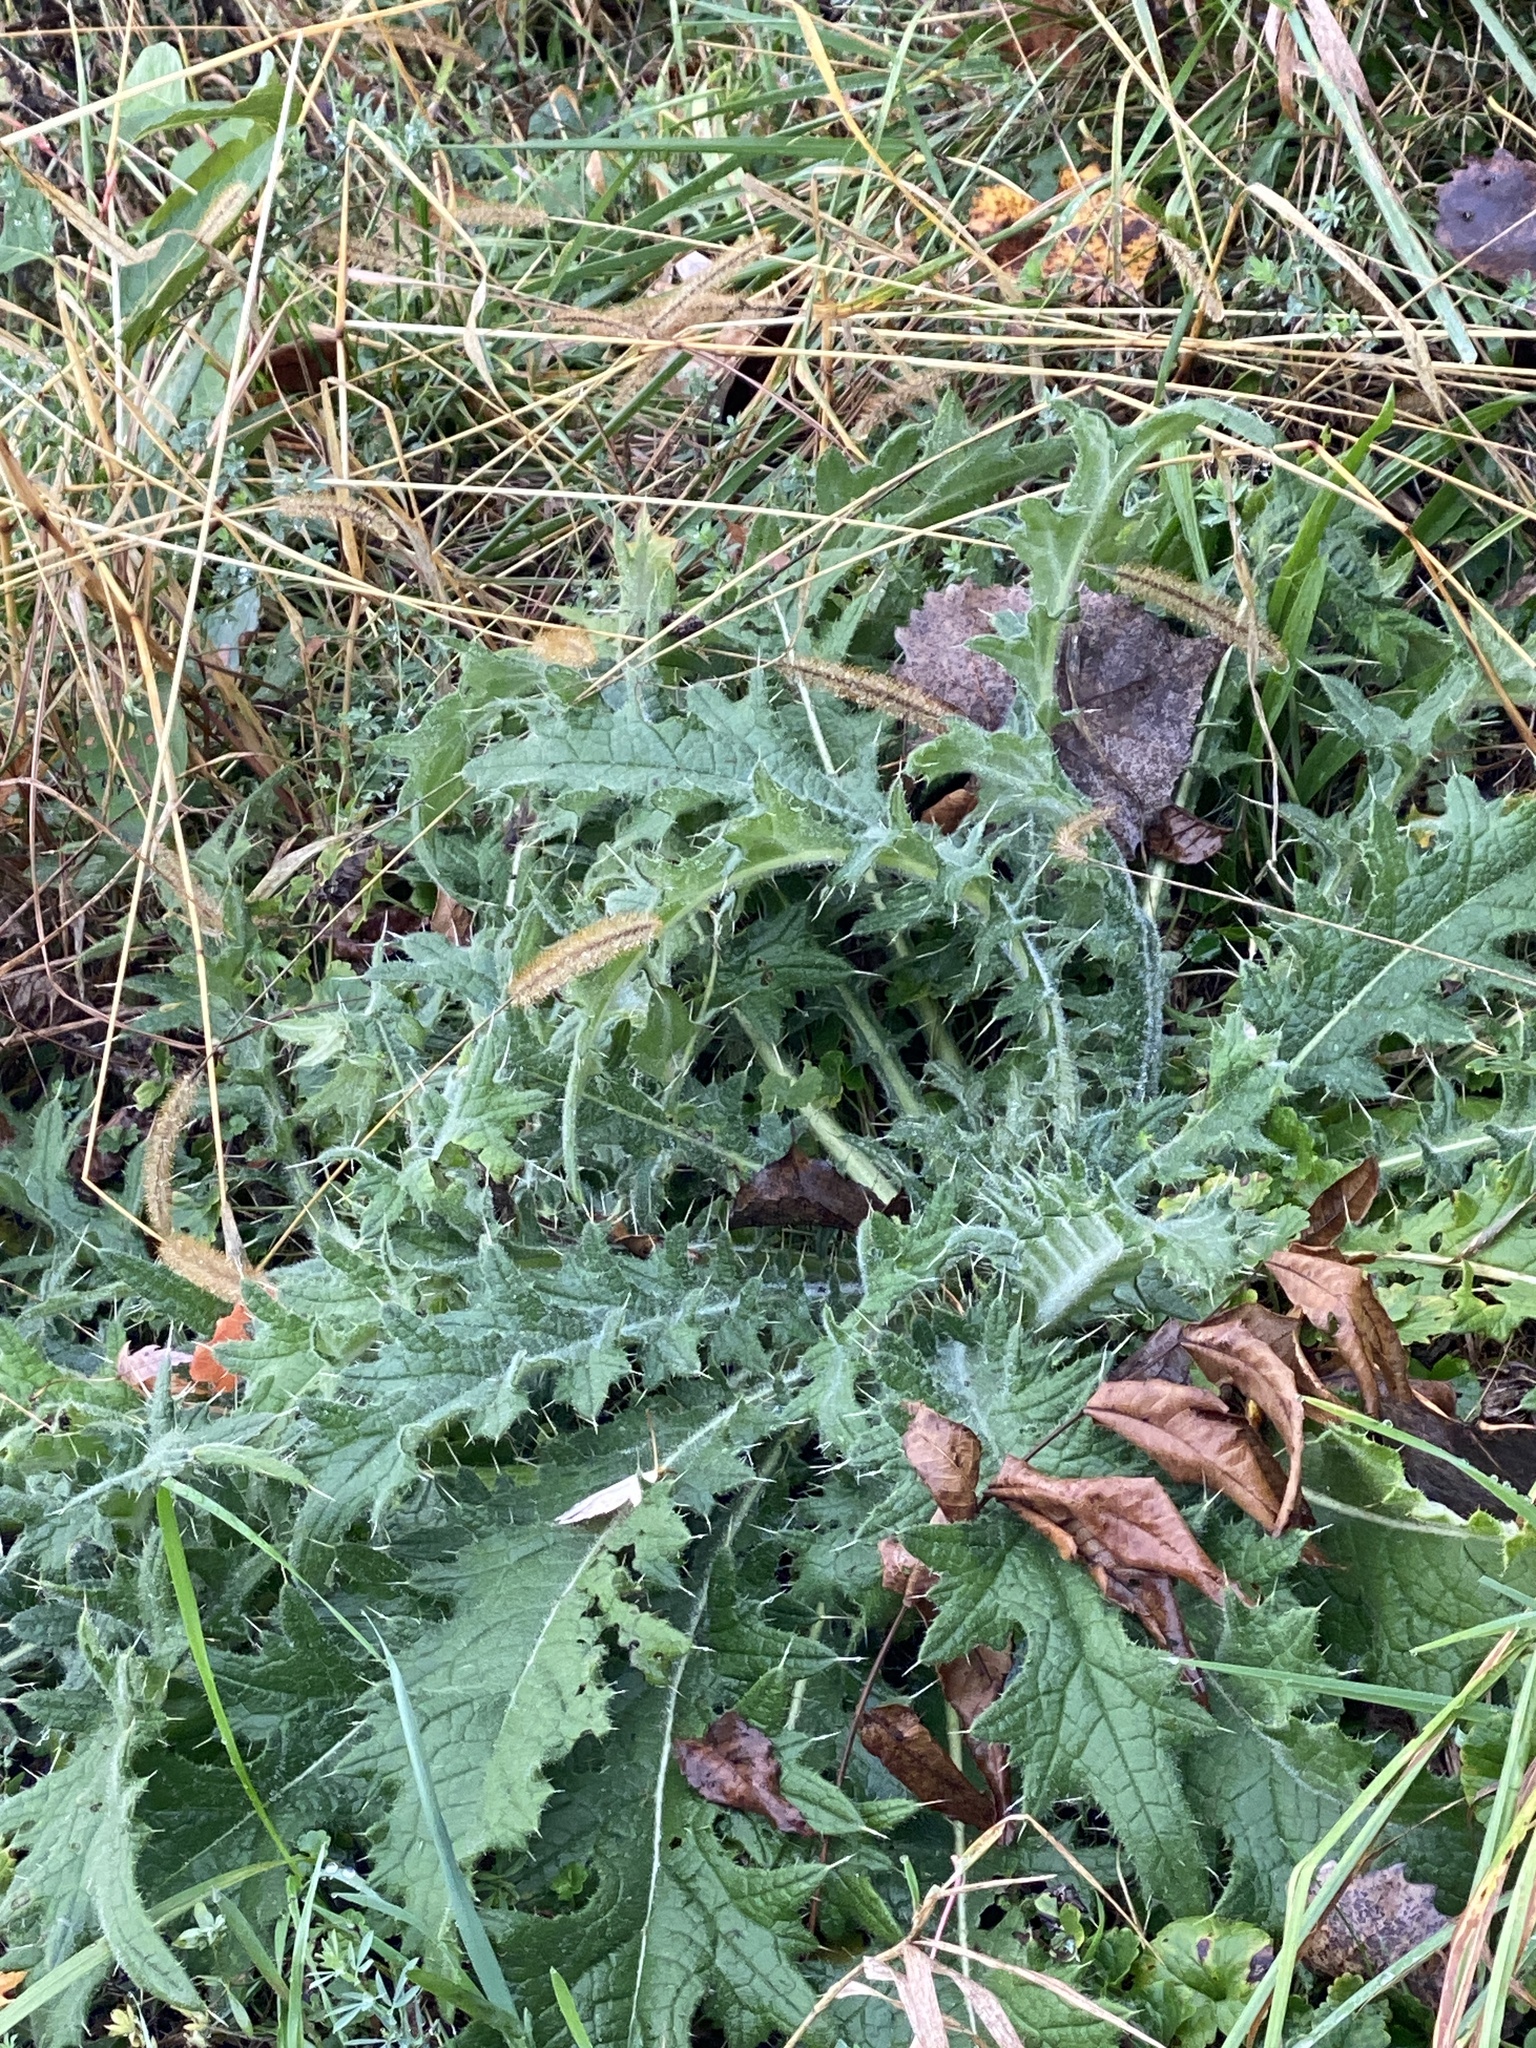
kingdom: Plantae
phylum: Tracheophyta
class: Magnoliopsida
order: Asterales
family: Asteraceae
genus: Cirsium
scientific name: Cirsium vulgare
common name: Bull thistle
